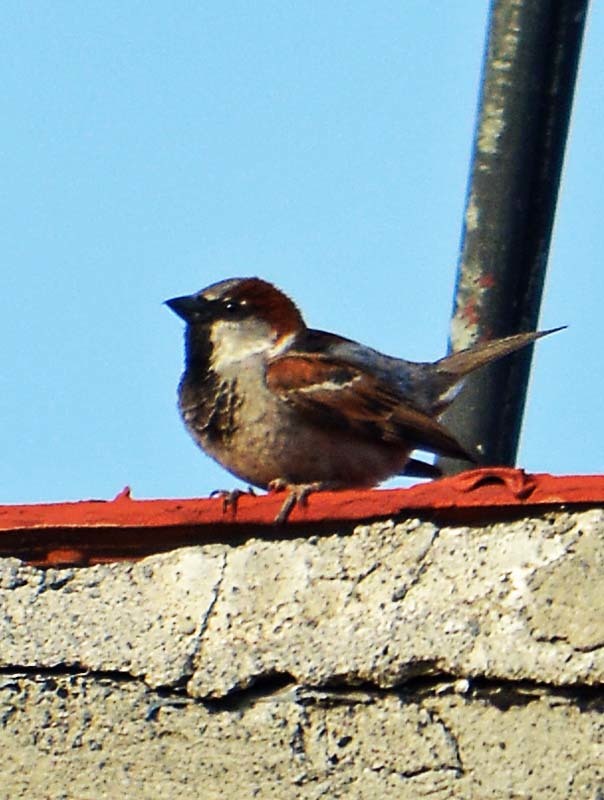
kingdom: Animalia
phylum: Chordata
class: Aves
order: Passeriformes
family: Passeridae
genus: Passer
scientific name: Passer domesticus
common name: House sparrow
